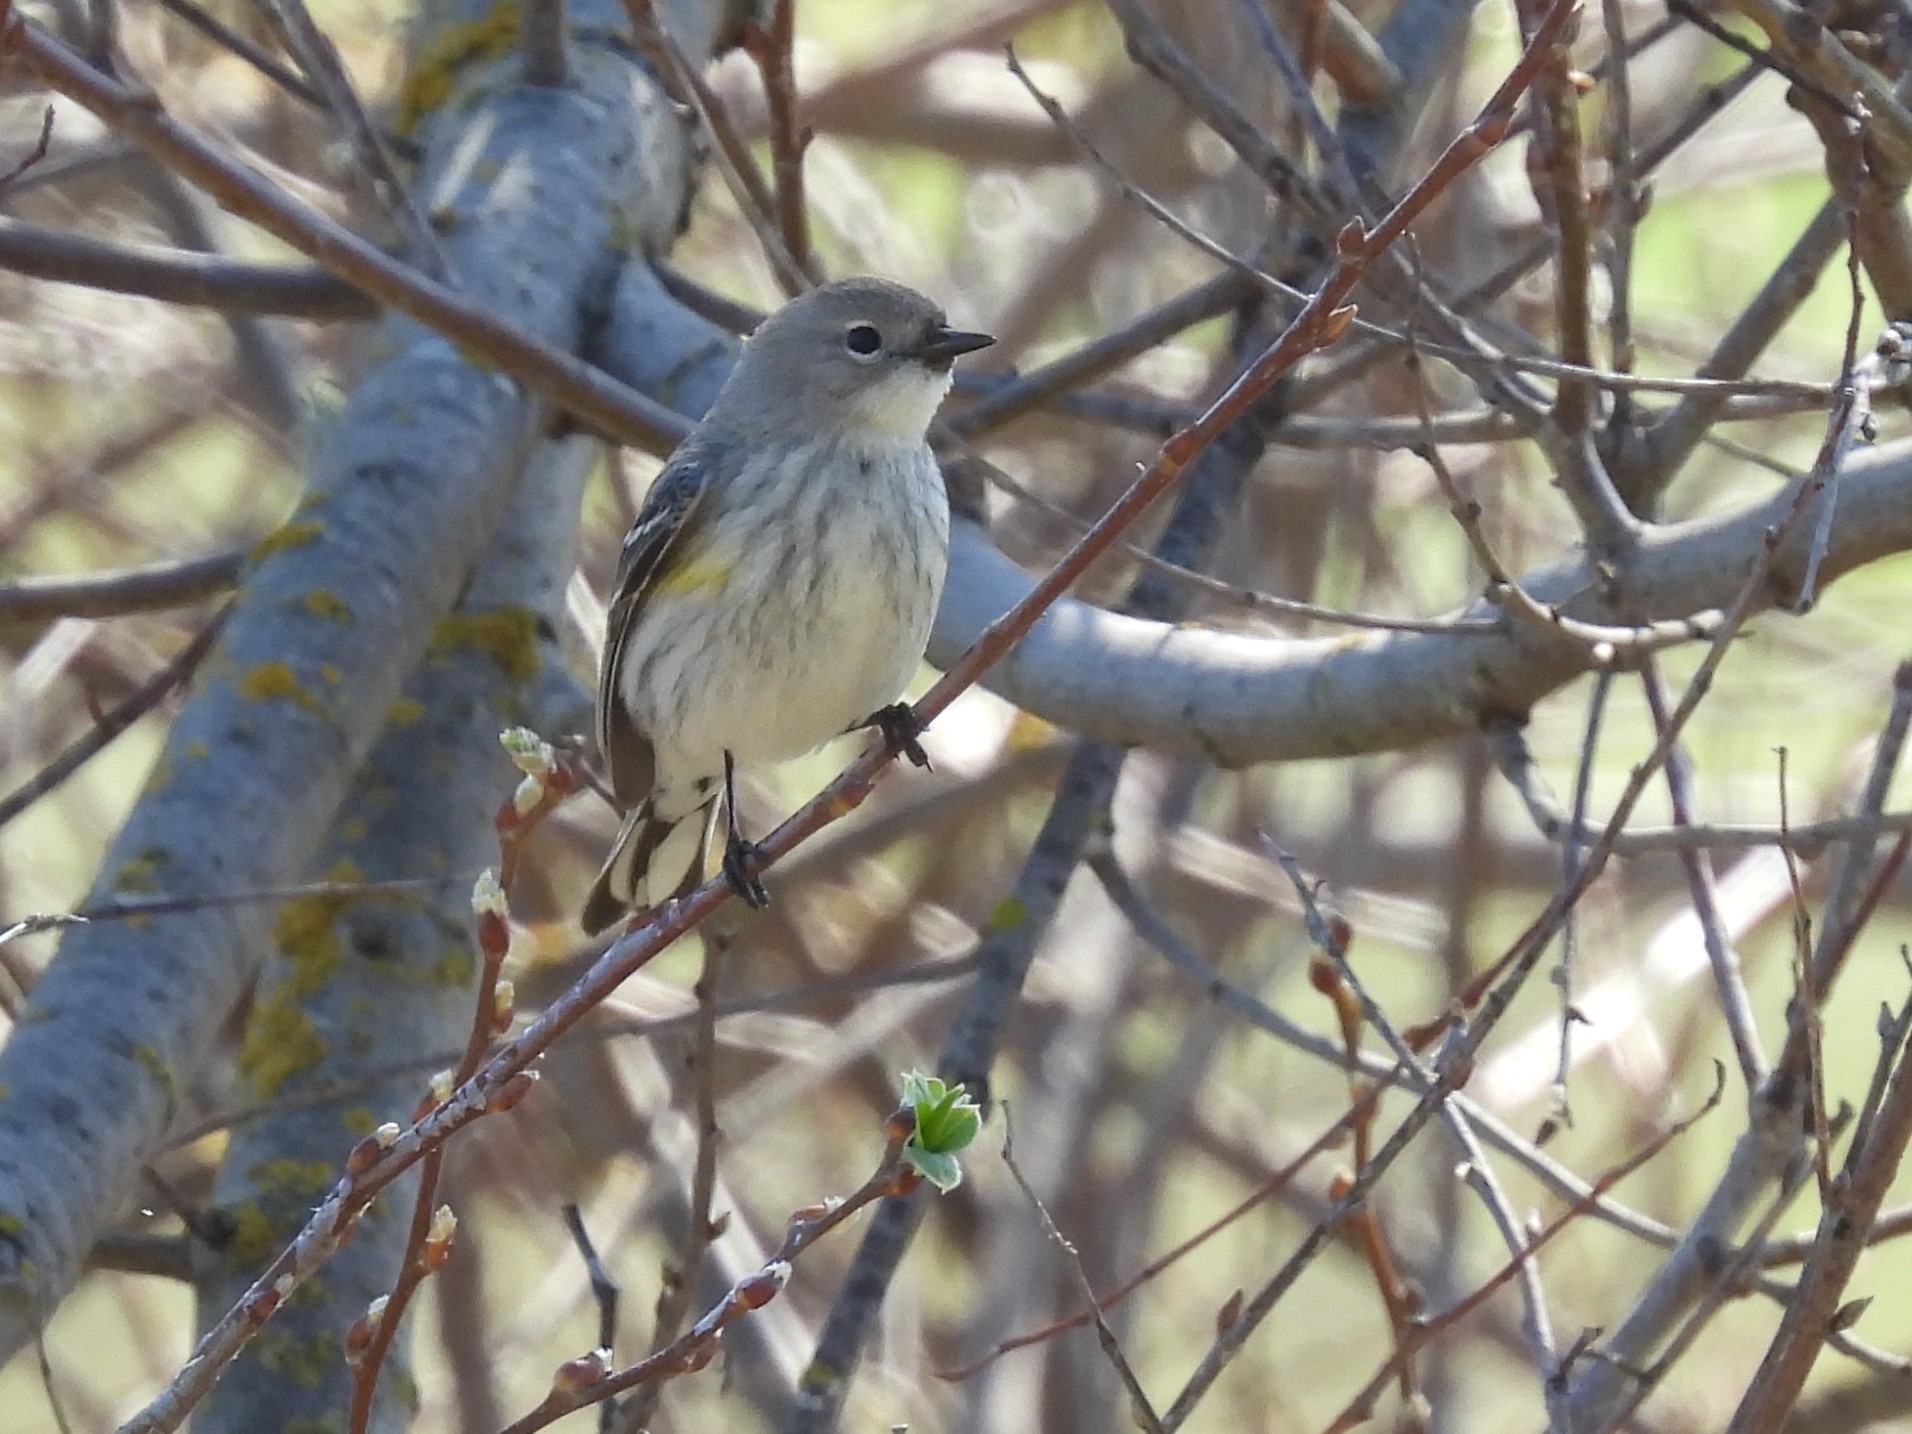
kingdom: Animalia
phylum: Chordata
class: Aves
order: Passeriformes
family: Parulidae
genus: Setophaga
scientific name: Setophaga coronata
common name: Myrtle warbler
